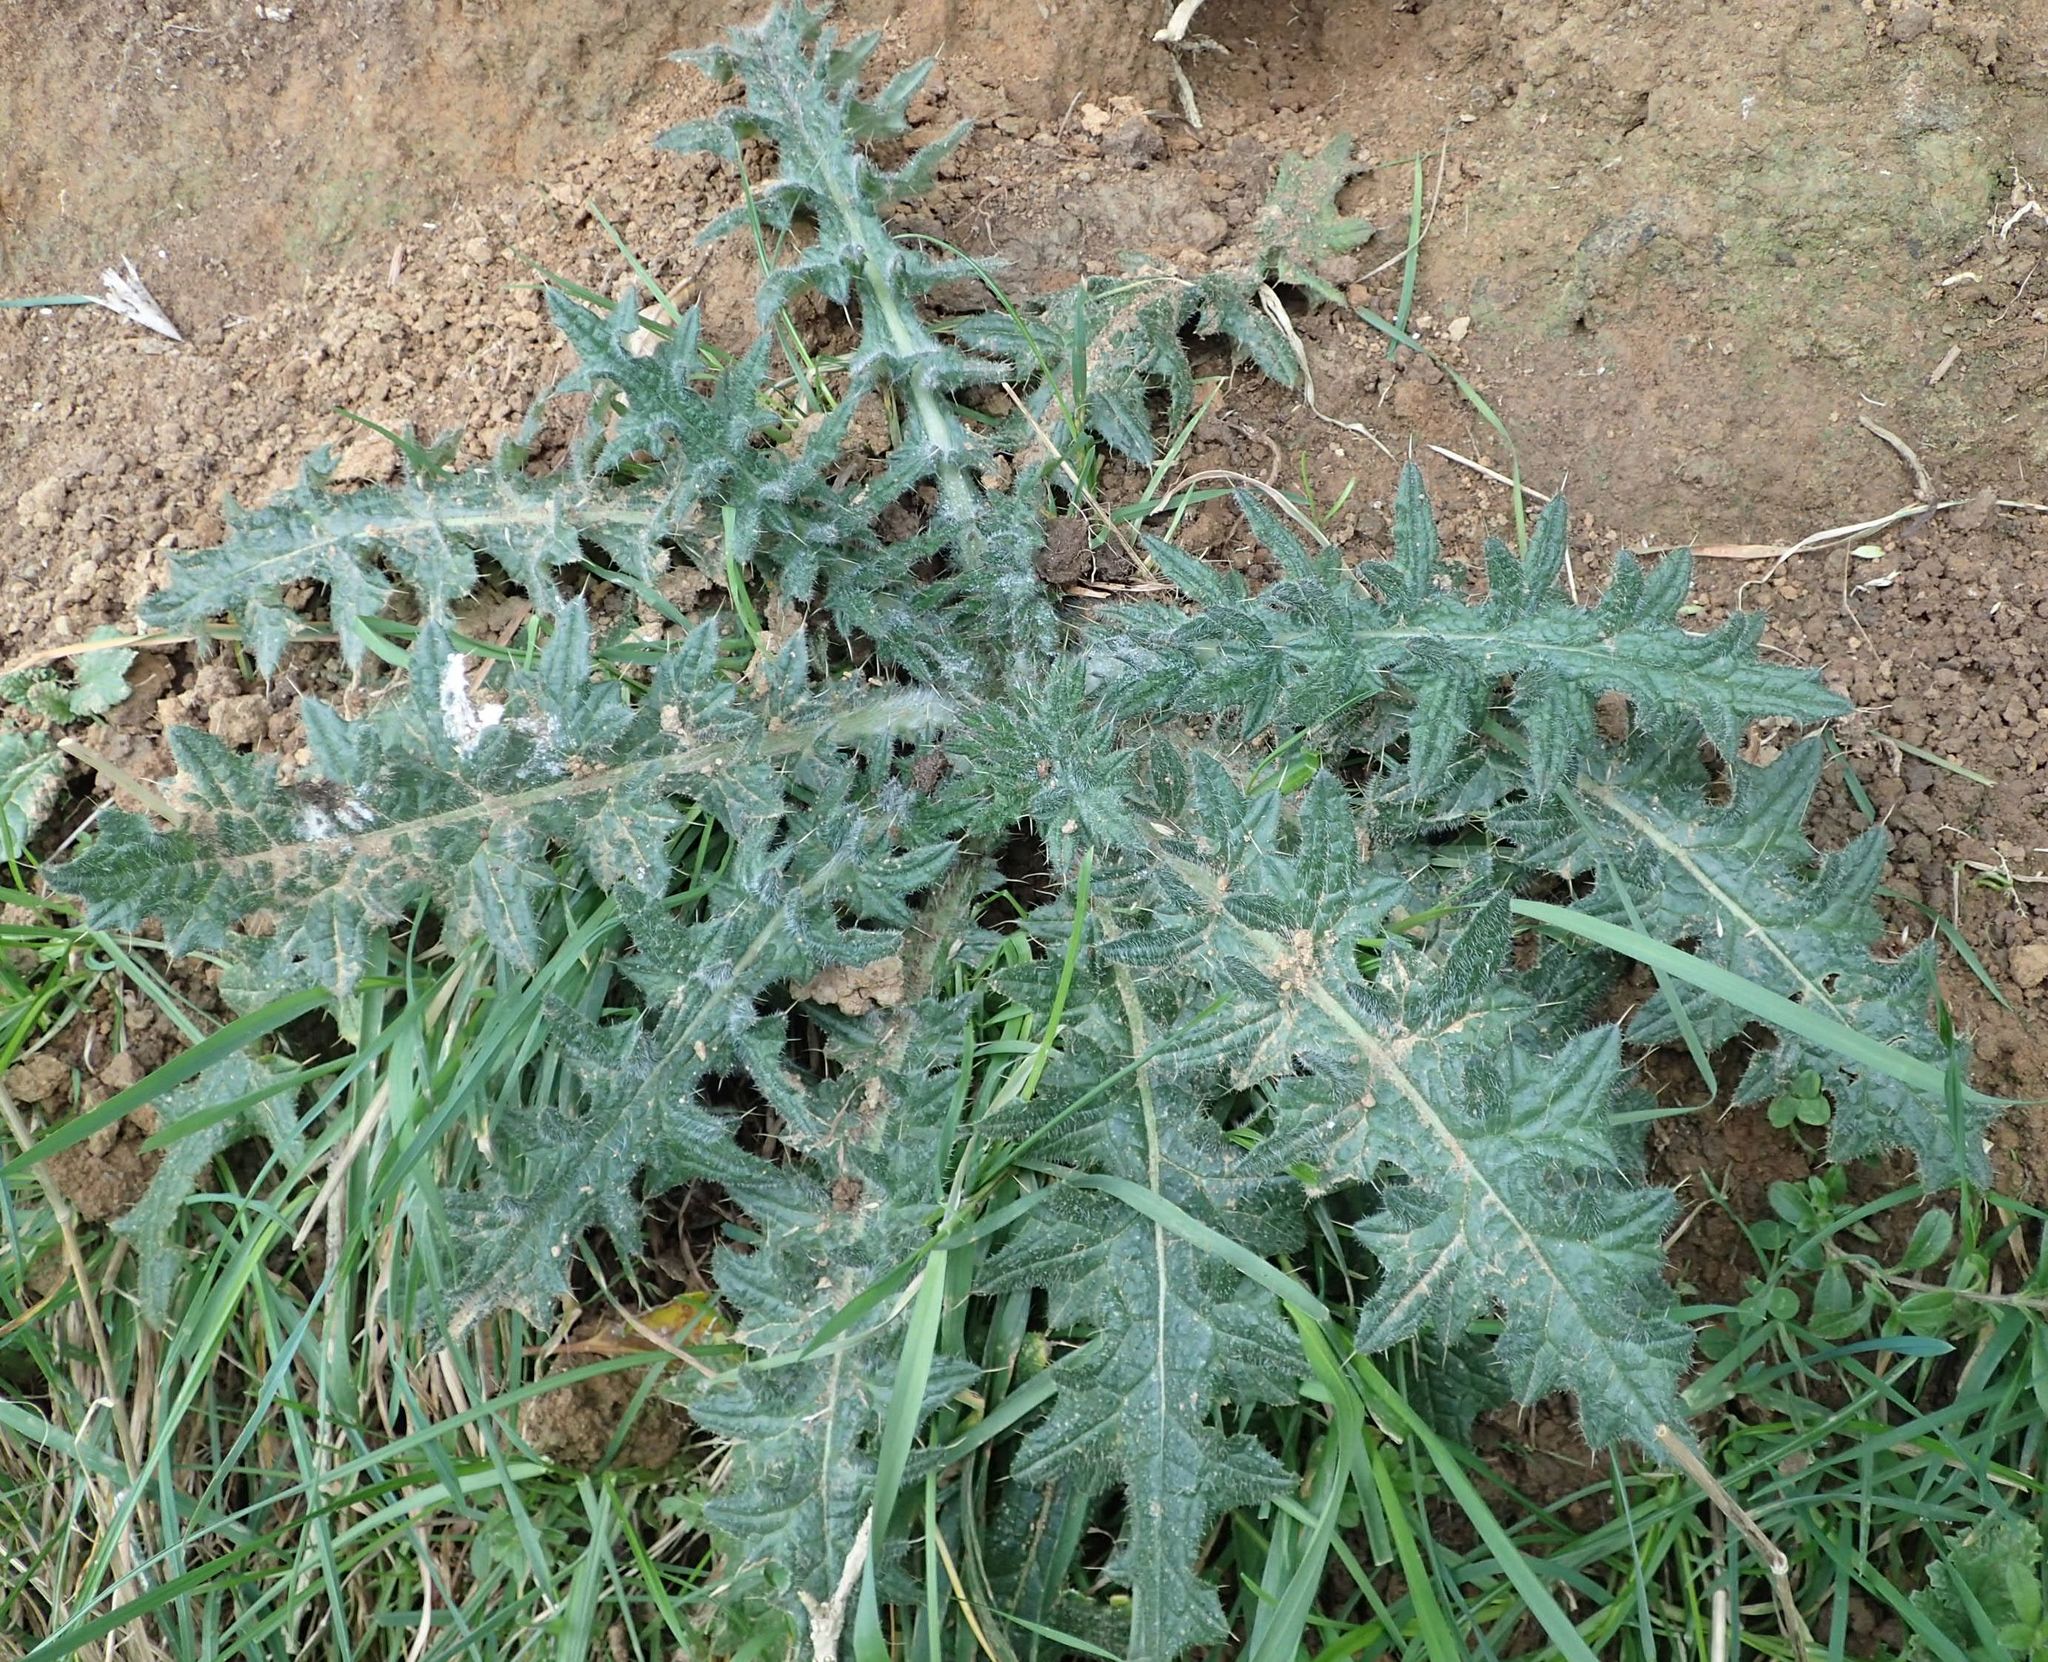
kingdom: Plantae
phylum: Tracheophyta
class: Magnoliopsida
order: Asterales
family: Asteraceae
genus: Cirsium
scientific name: Cirsium vulgare
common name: Bull thistle
